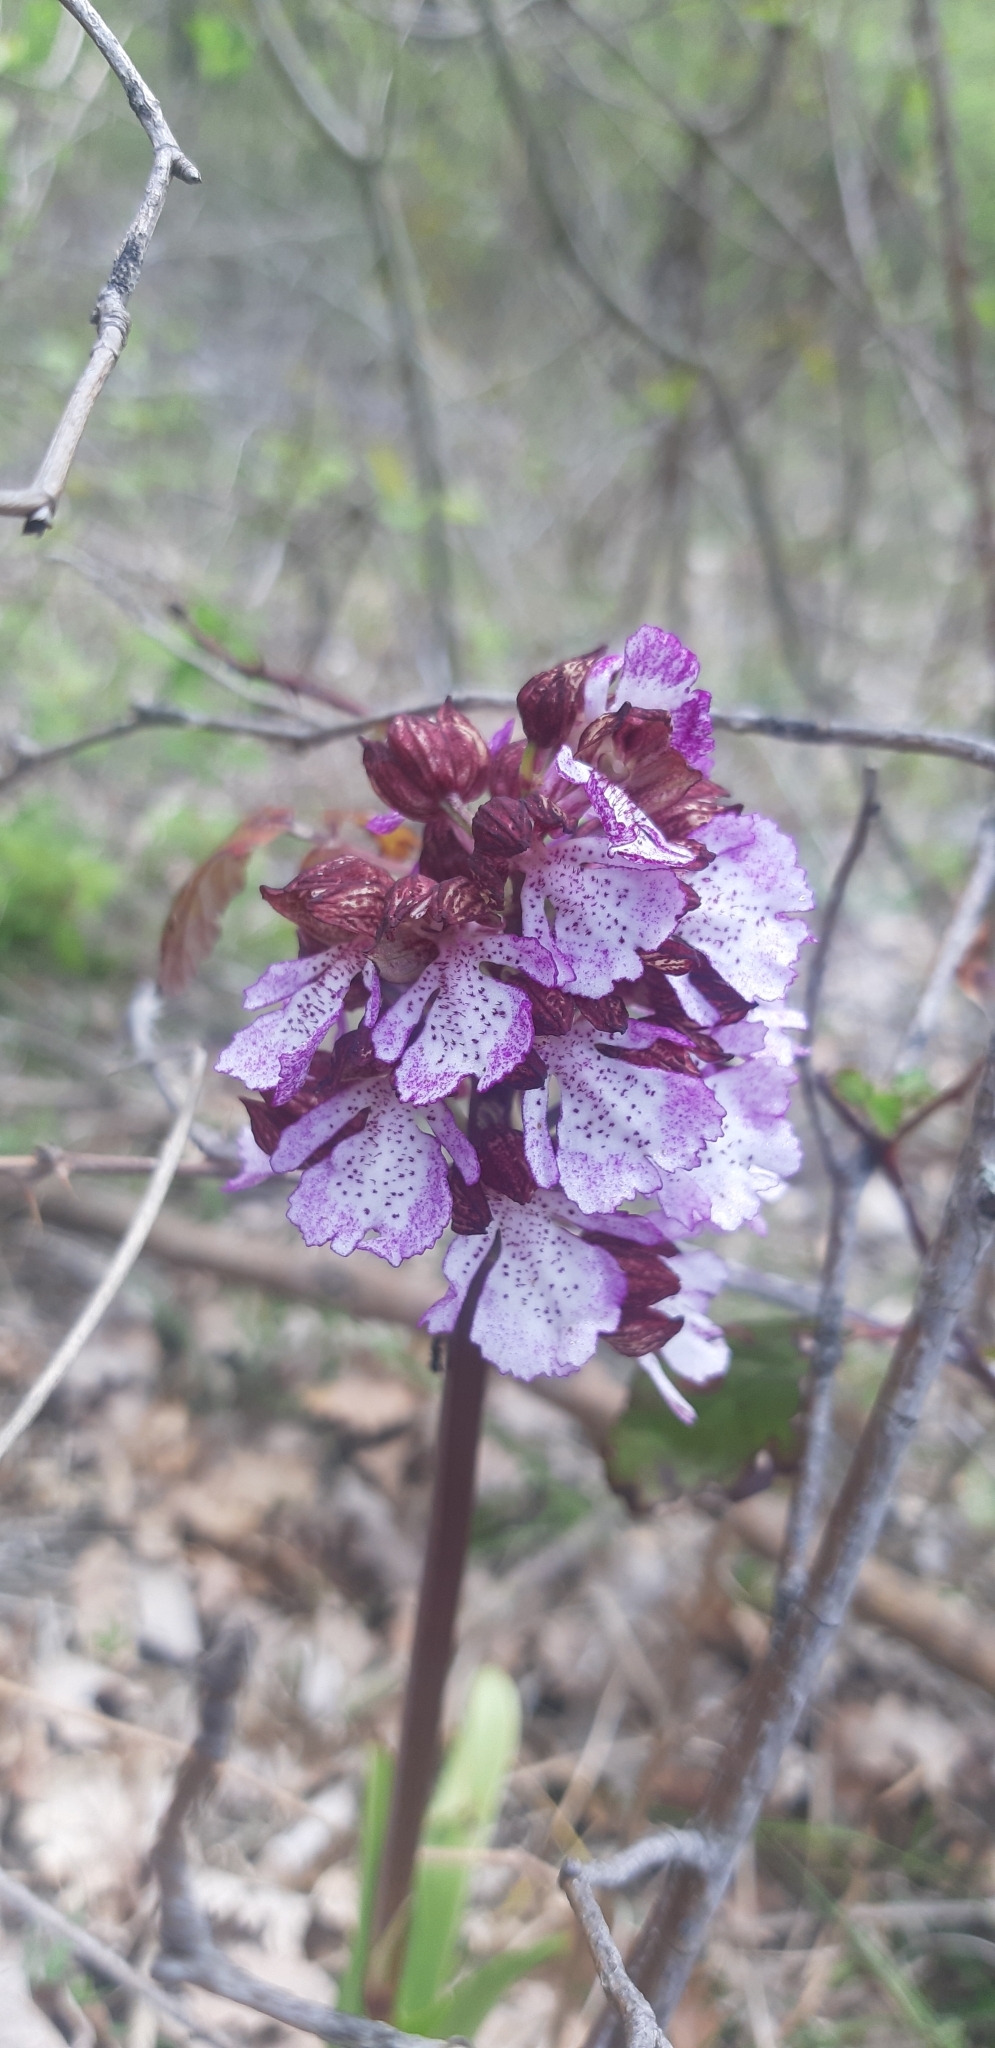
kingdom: Plantae
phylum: Tracheophyta
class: Liliopsida
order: Asparagales
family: Orchidaceae
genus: Orchis
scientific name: Orchis purpurea
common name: Lady orchid
